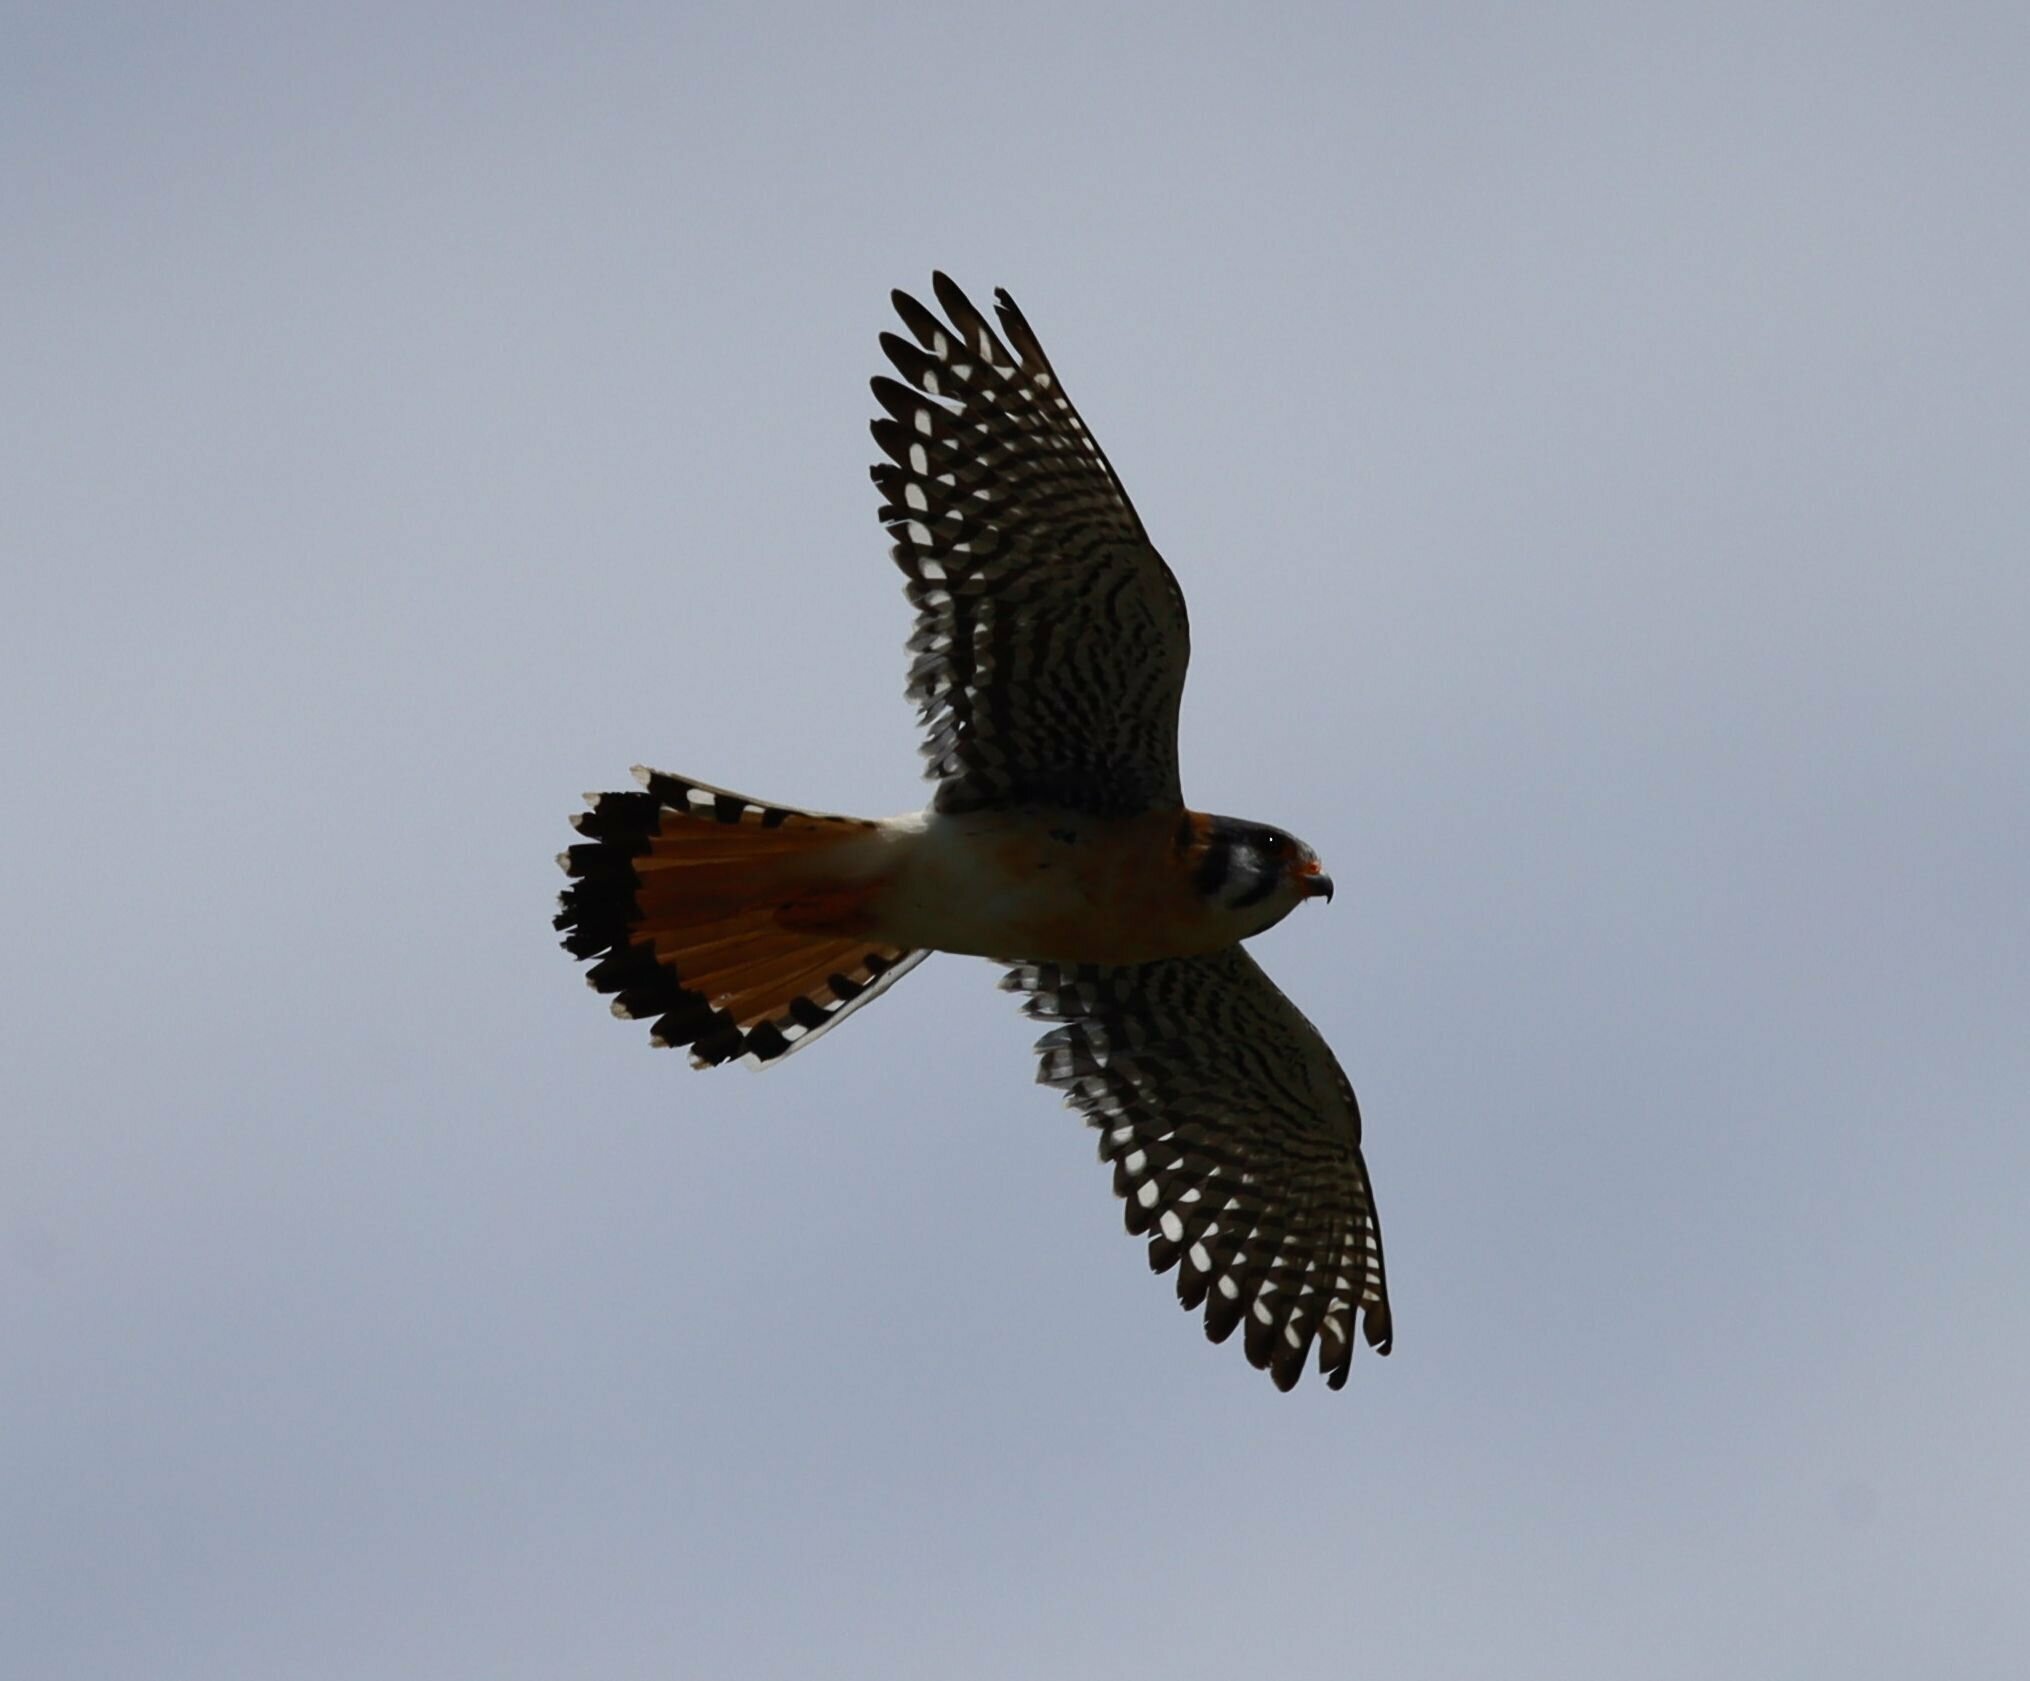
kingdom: Animalia
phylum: Chordata
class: Aves
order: Falconiformes
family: Falconidae
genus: Falco
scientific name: Falco sparverius
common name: American kestrel
